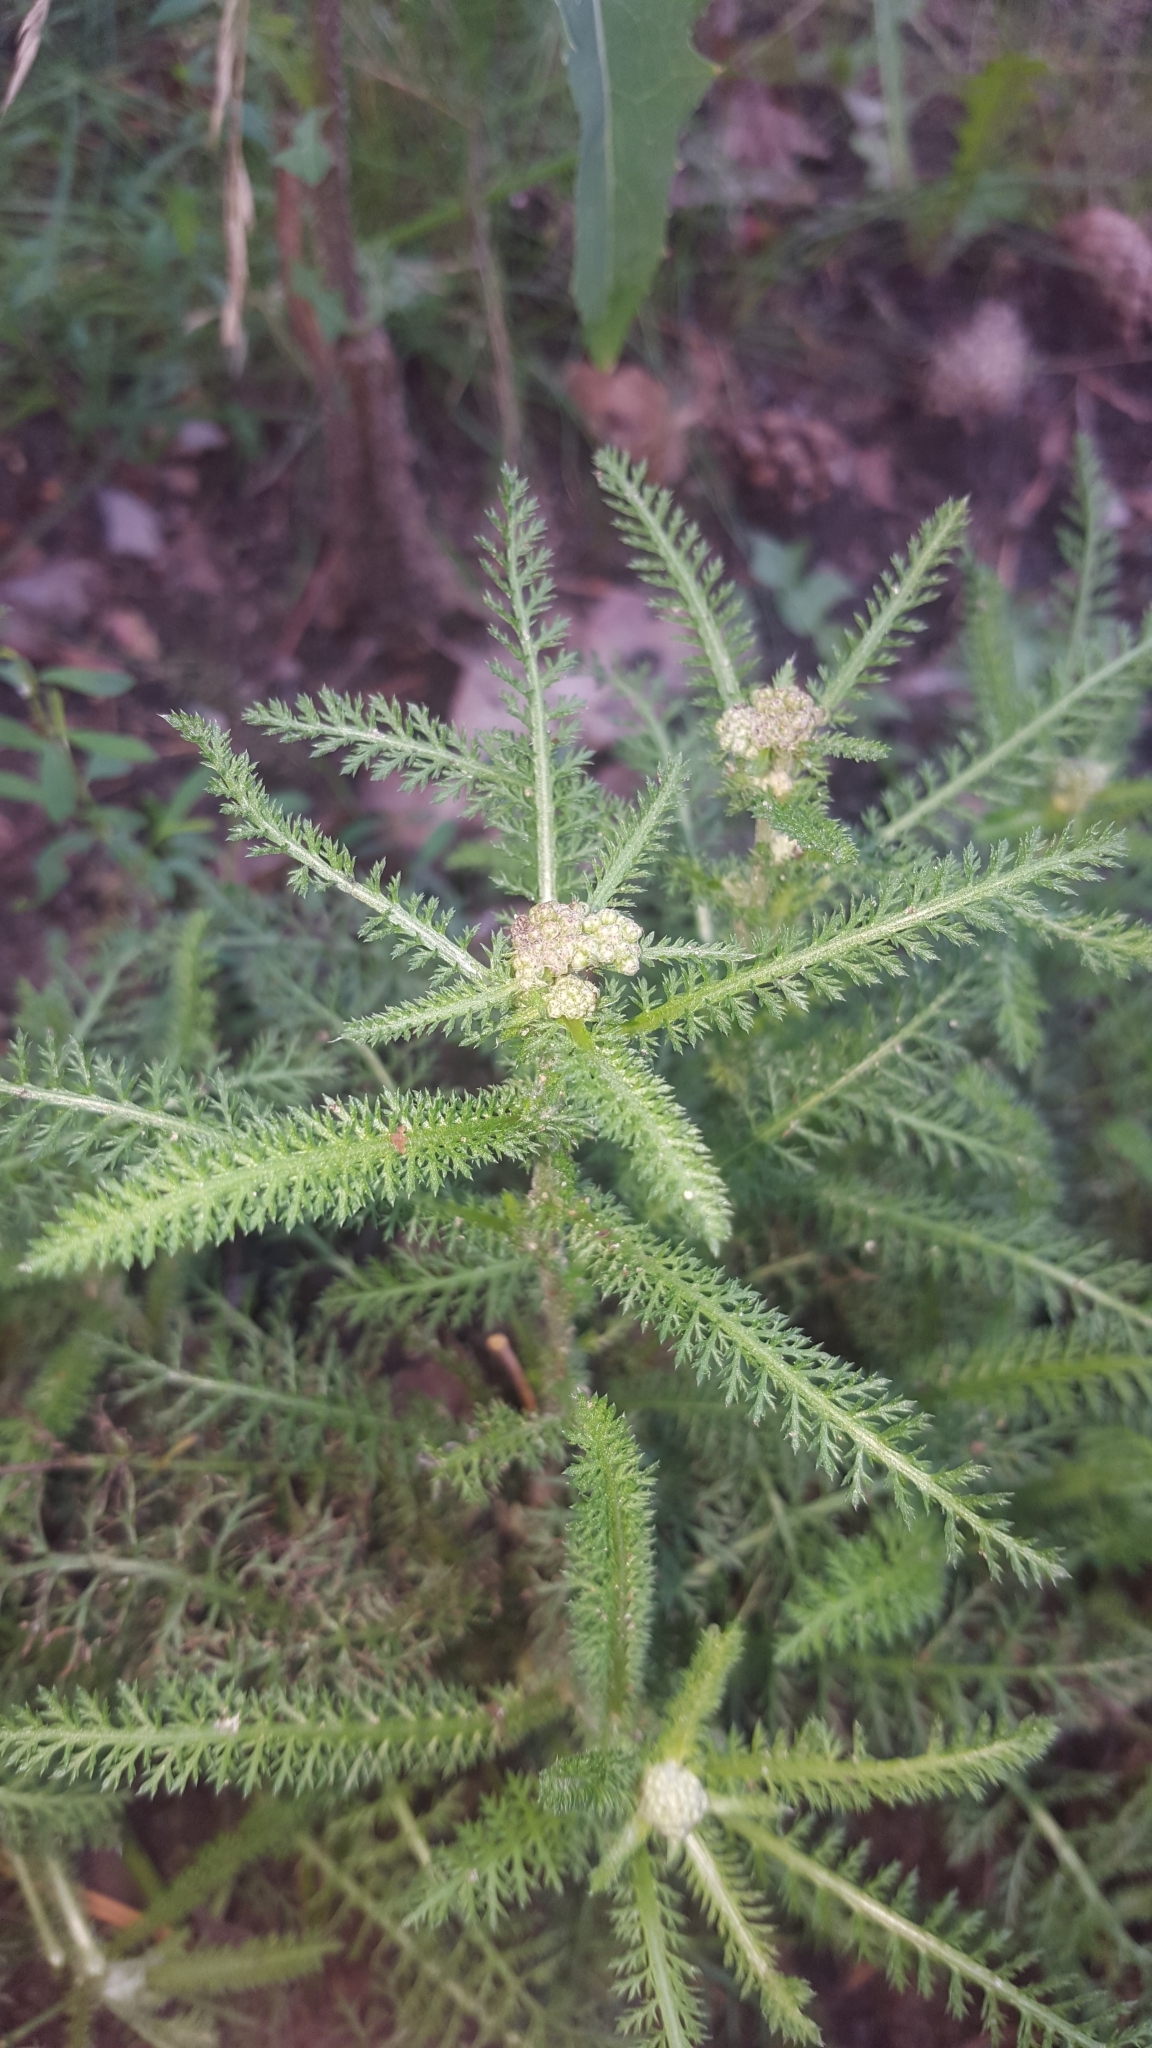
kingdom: Plantae
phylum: Tracheophyta
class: Magnoliopsida
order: Asterales
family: Asteraceae
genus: Achillea
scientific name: Achillea millefolium
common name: Yarrow
